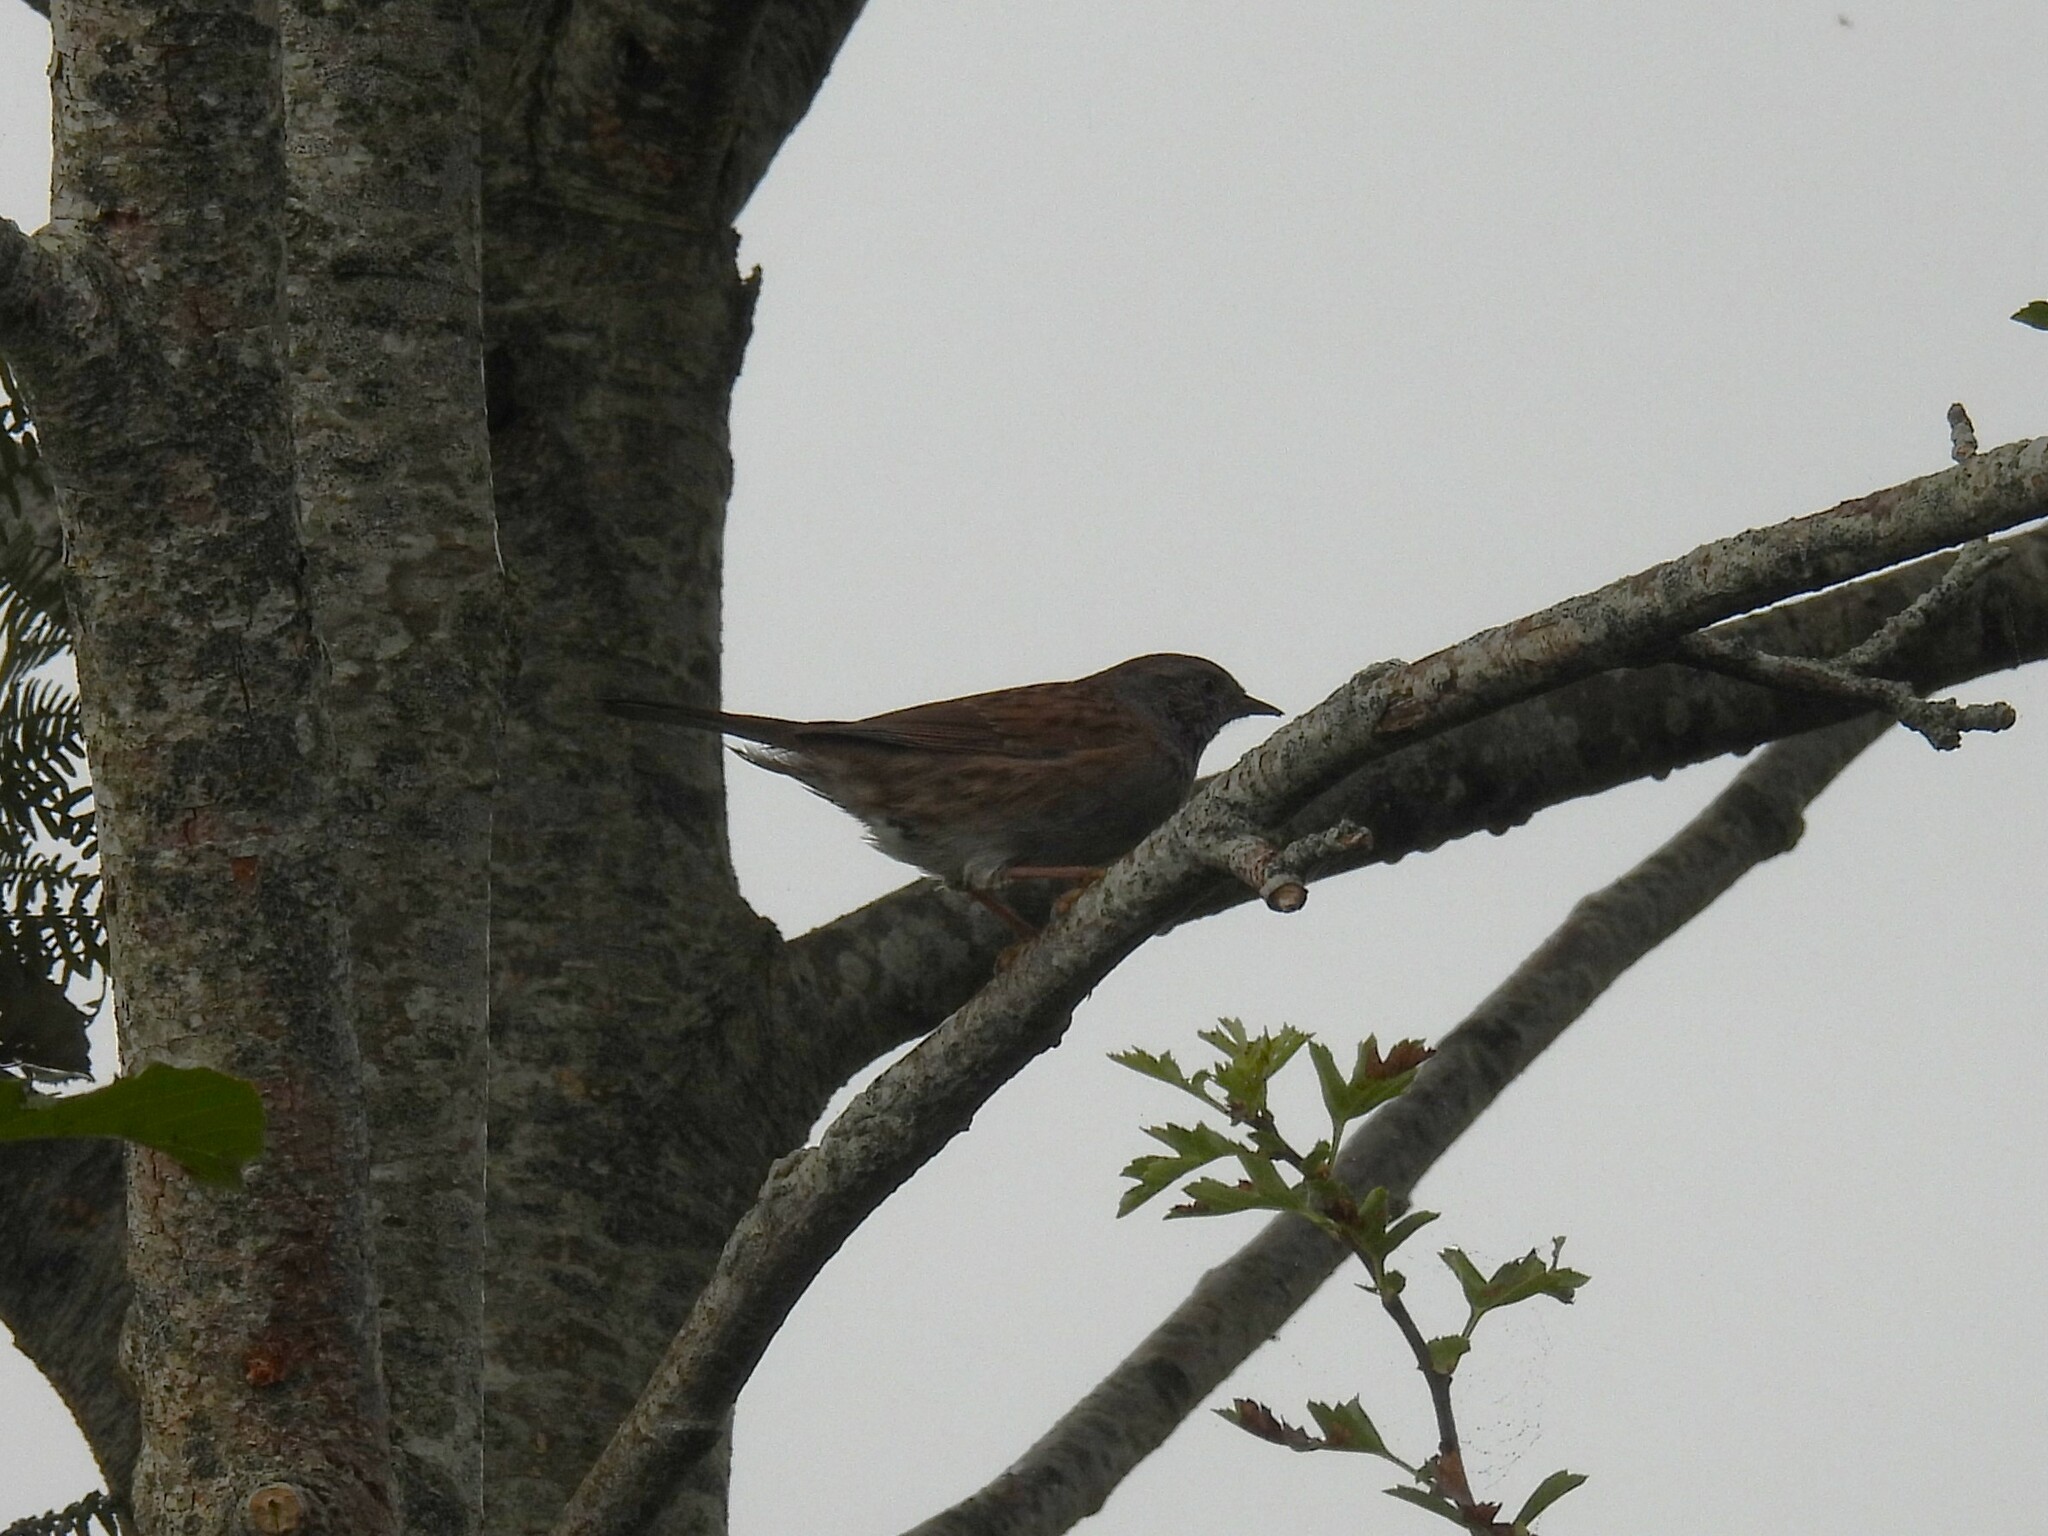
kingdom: Animalia
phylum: Chordata
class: Aves
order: Passeriformes
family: Prunellidae
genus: Prunella
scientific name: Prunella modularis
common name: Dunnock
